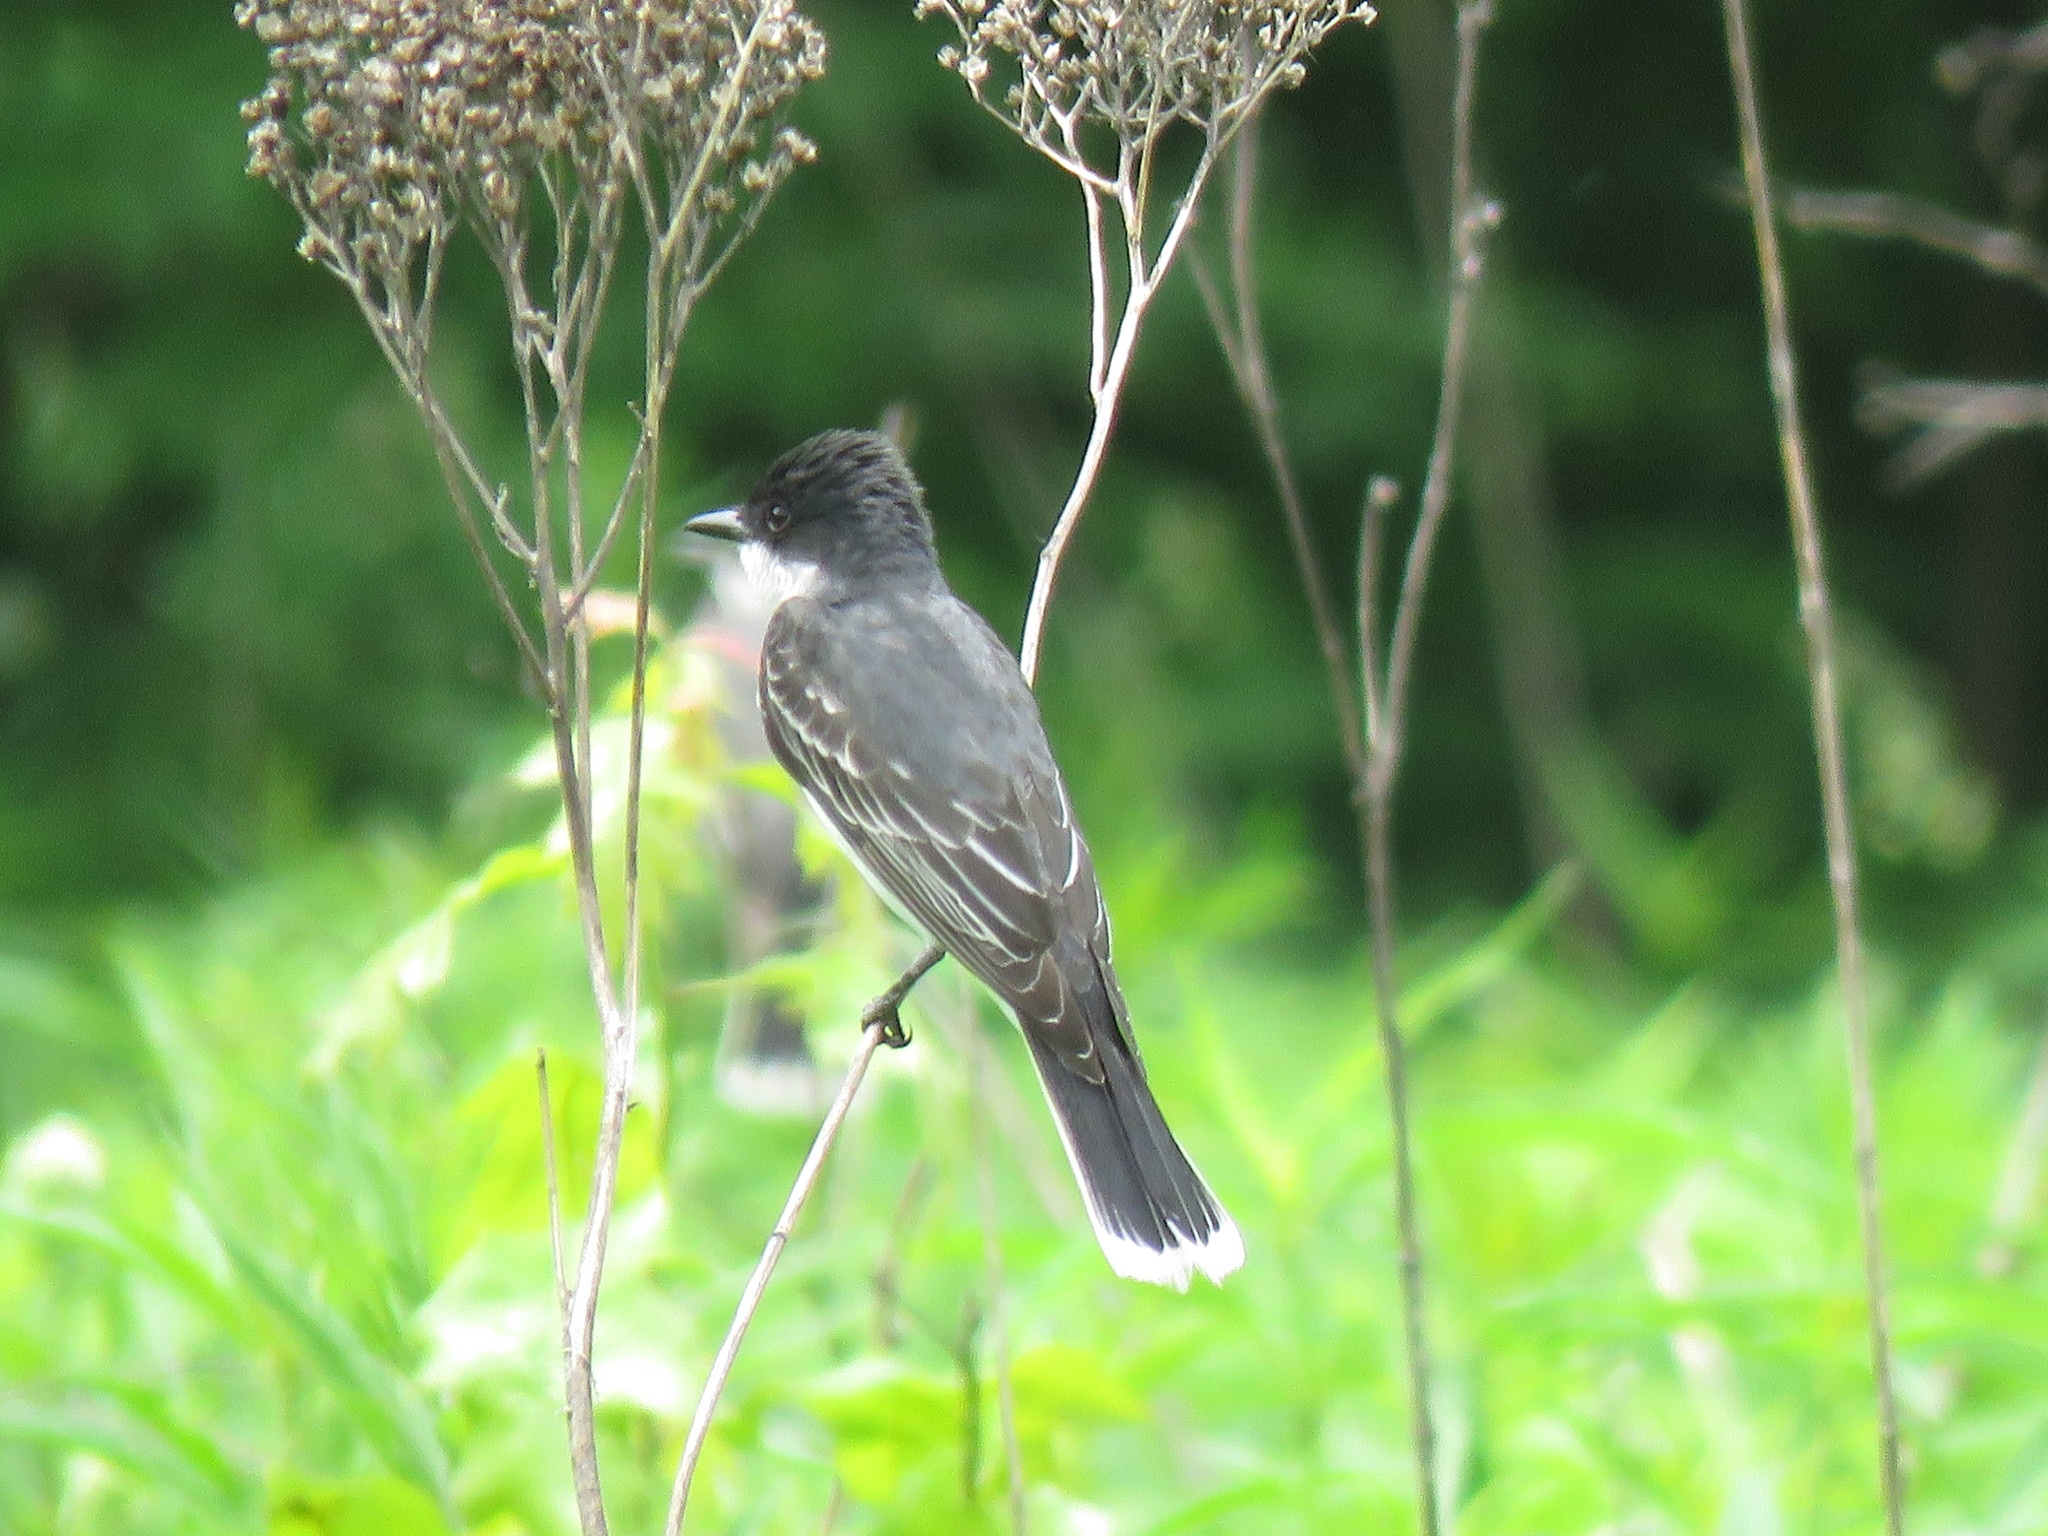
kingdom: Animalia
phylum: Chordata
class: Aves
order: Passeriformes
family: Tyrannidae
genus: Tyrannus
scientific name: Tyrannus tyrannus
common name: Eastern kingbird
